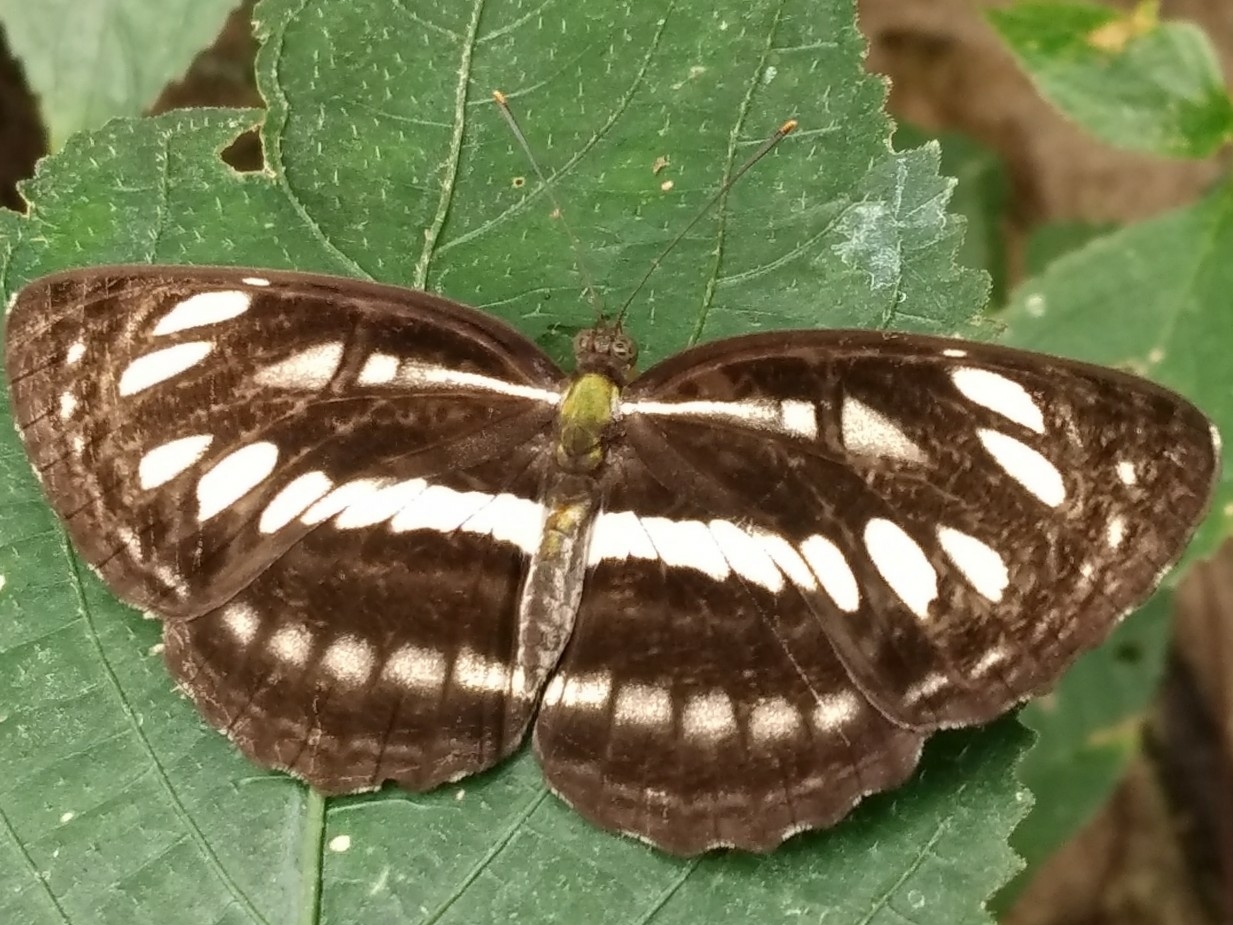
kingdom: Animalia
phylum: Arthropoda
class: Insecta
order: Lepidoptera
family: Nymphalidae
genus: Neptis
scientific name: Neptis hylas
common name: Common sailer
